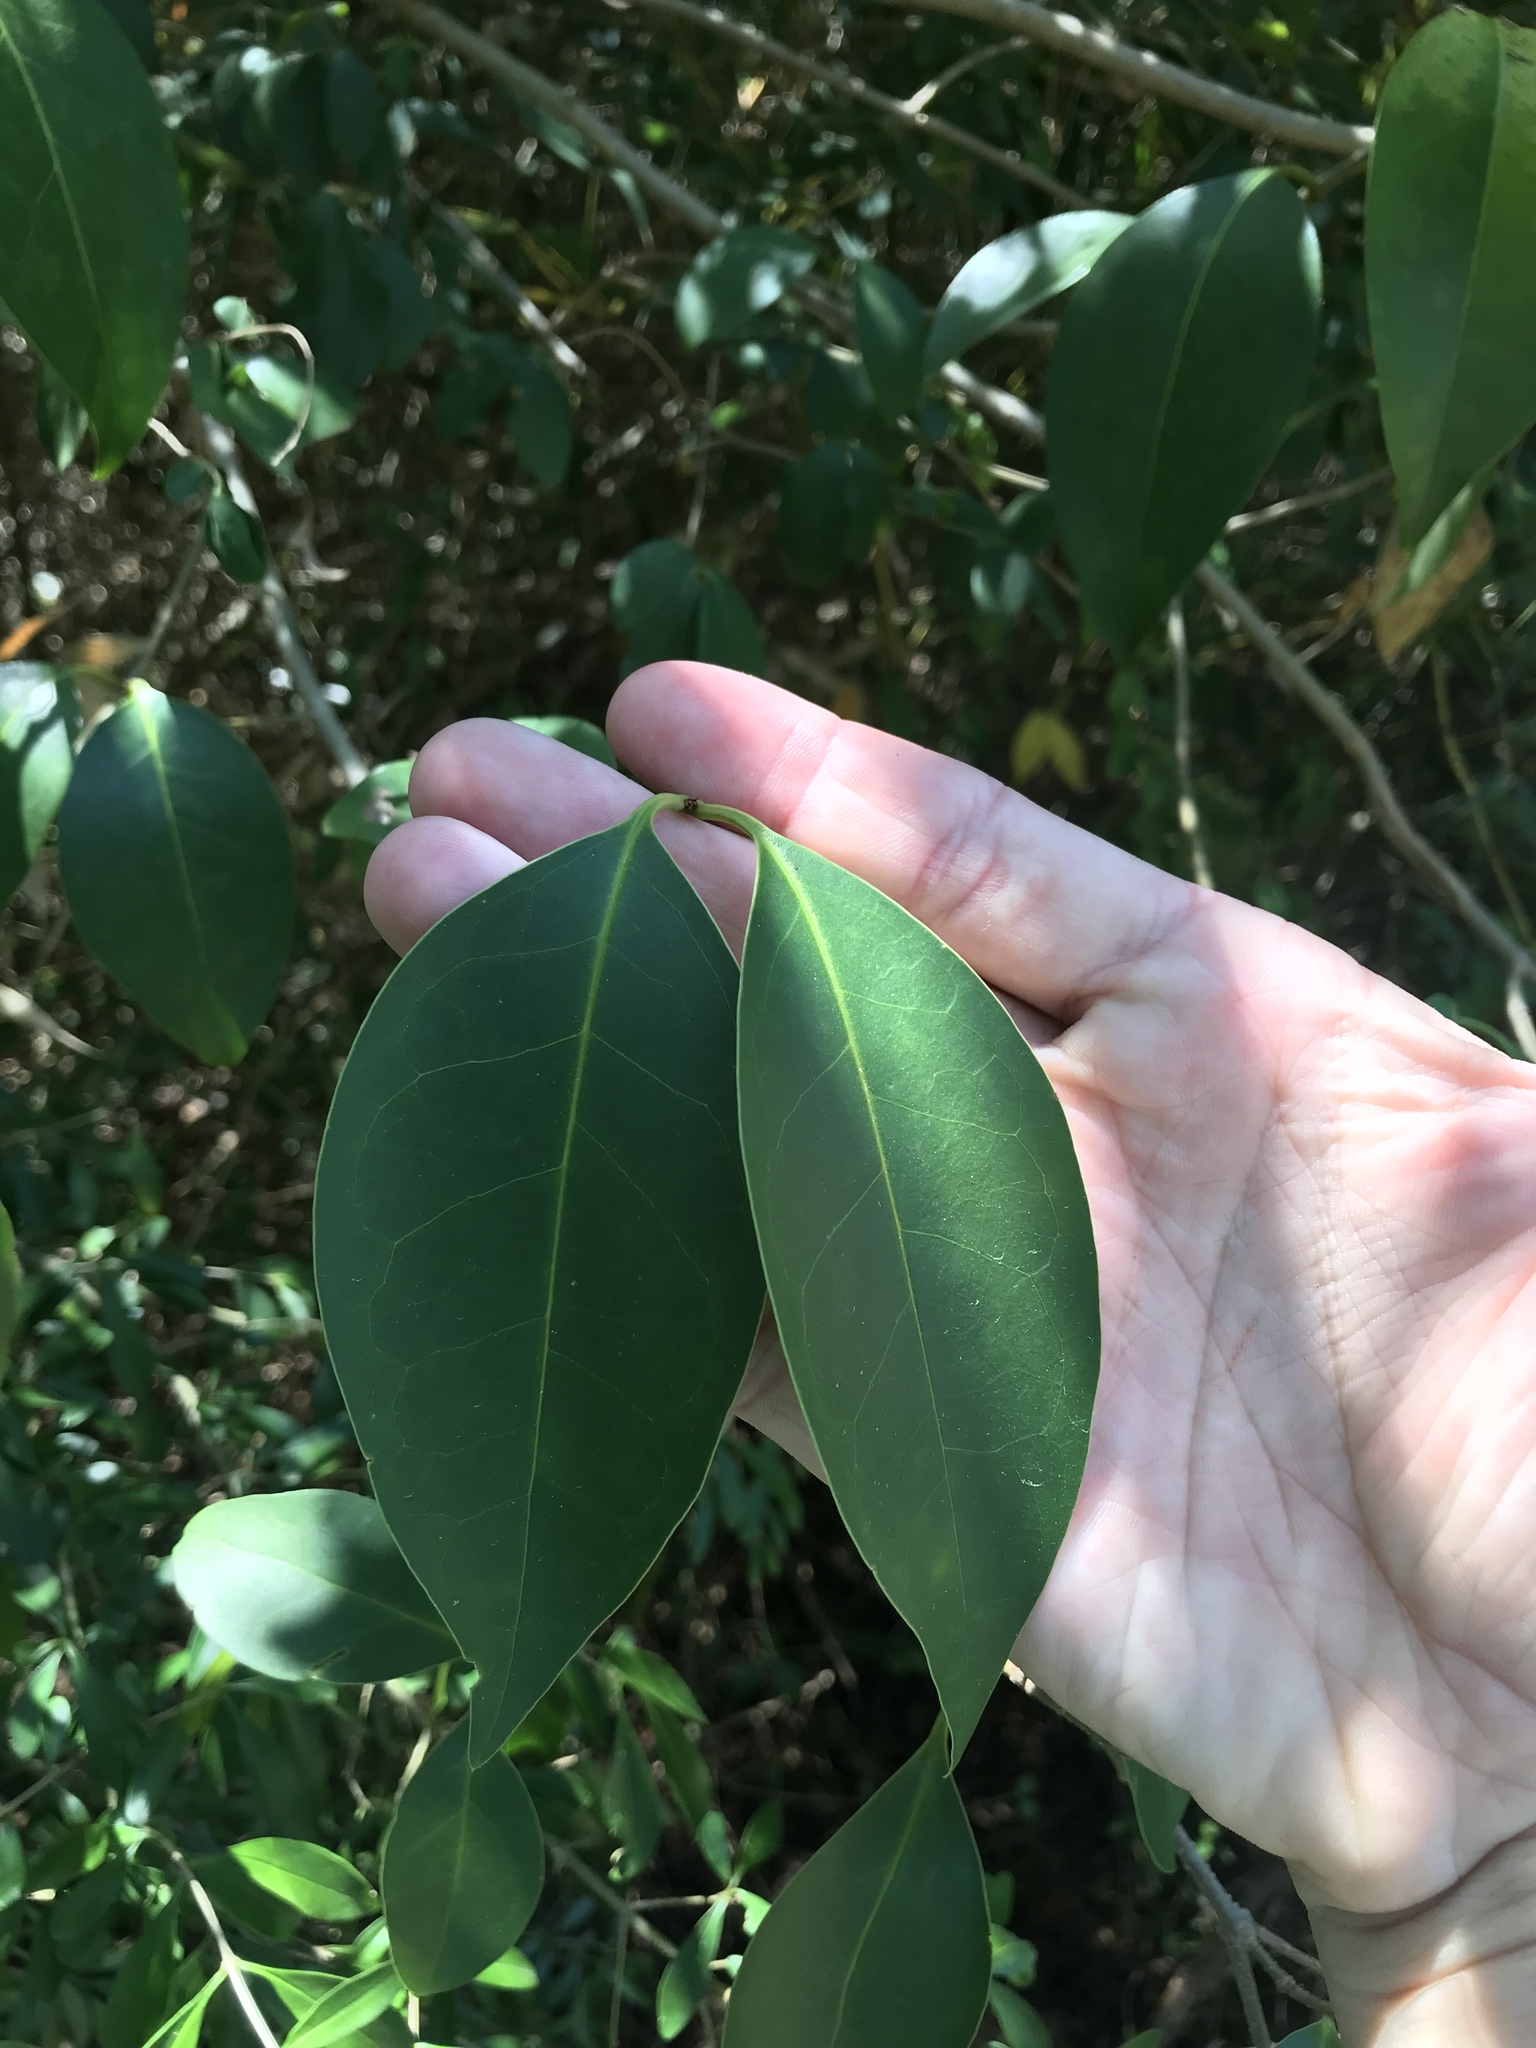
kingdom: Plantae
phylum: Tracheophyta
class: Magnoliopsida
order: Lamiales
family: Oleaceae
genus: Ligustrum
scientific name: Ligustrum lucidum
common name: Glossy privet
